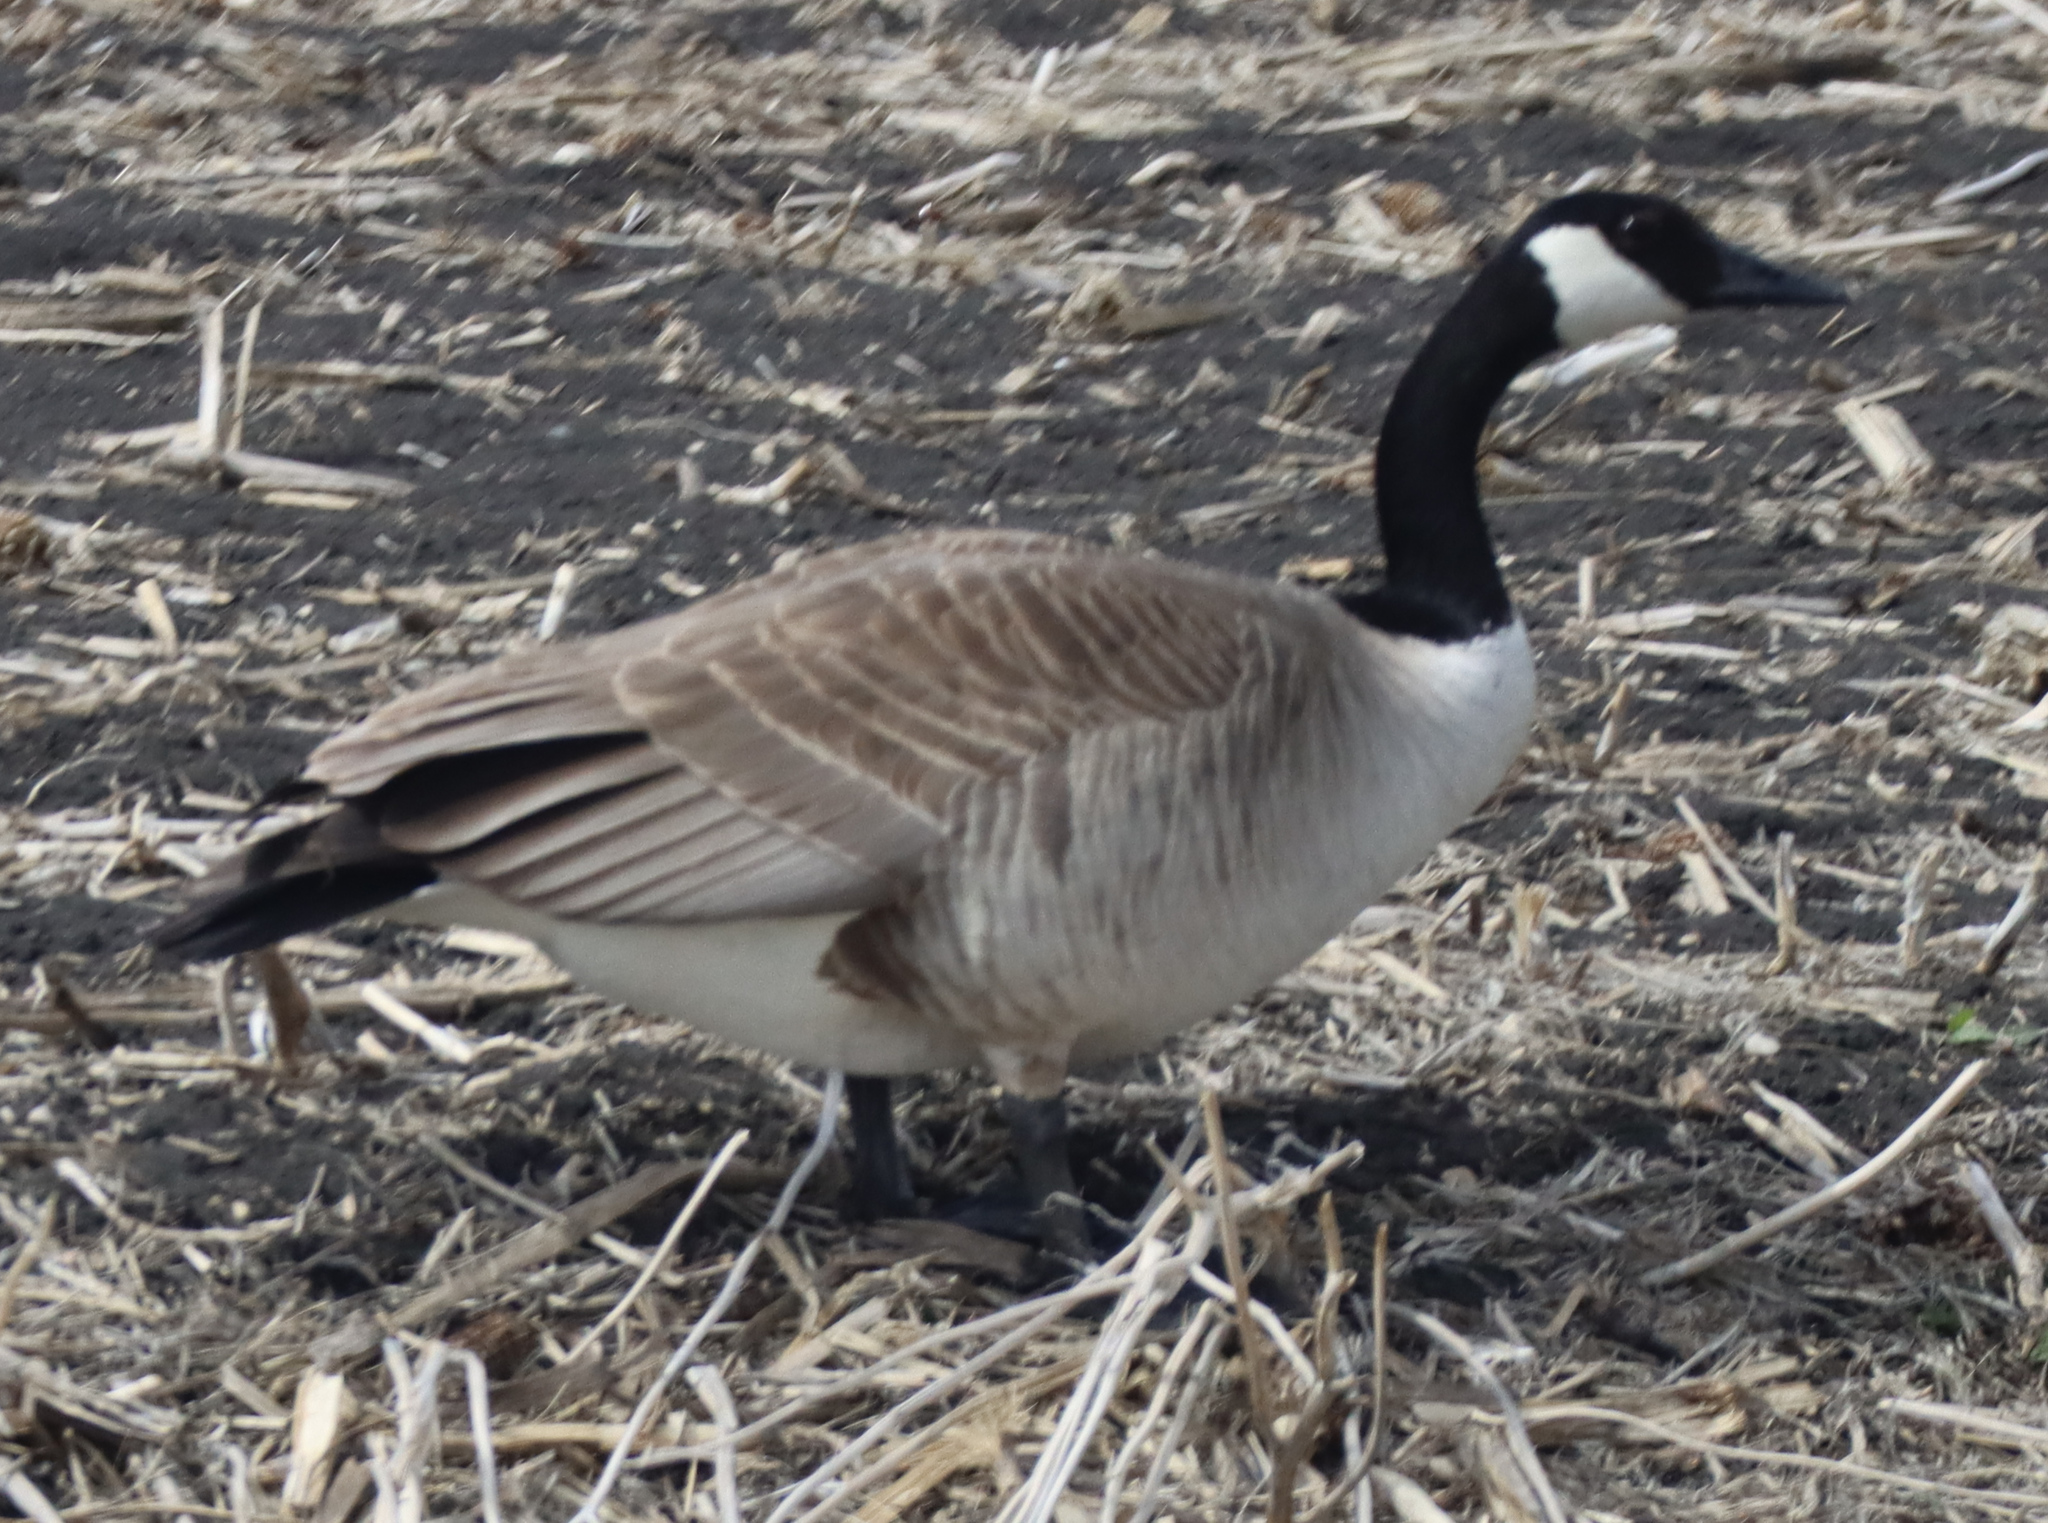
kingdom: Animalia
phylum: Chordata
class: Aves
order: Anseriformes
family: Anatidae
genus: Branta
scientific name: Branta canadensis
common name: Canada goose
